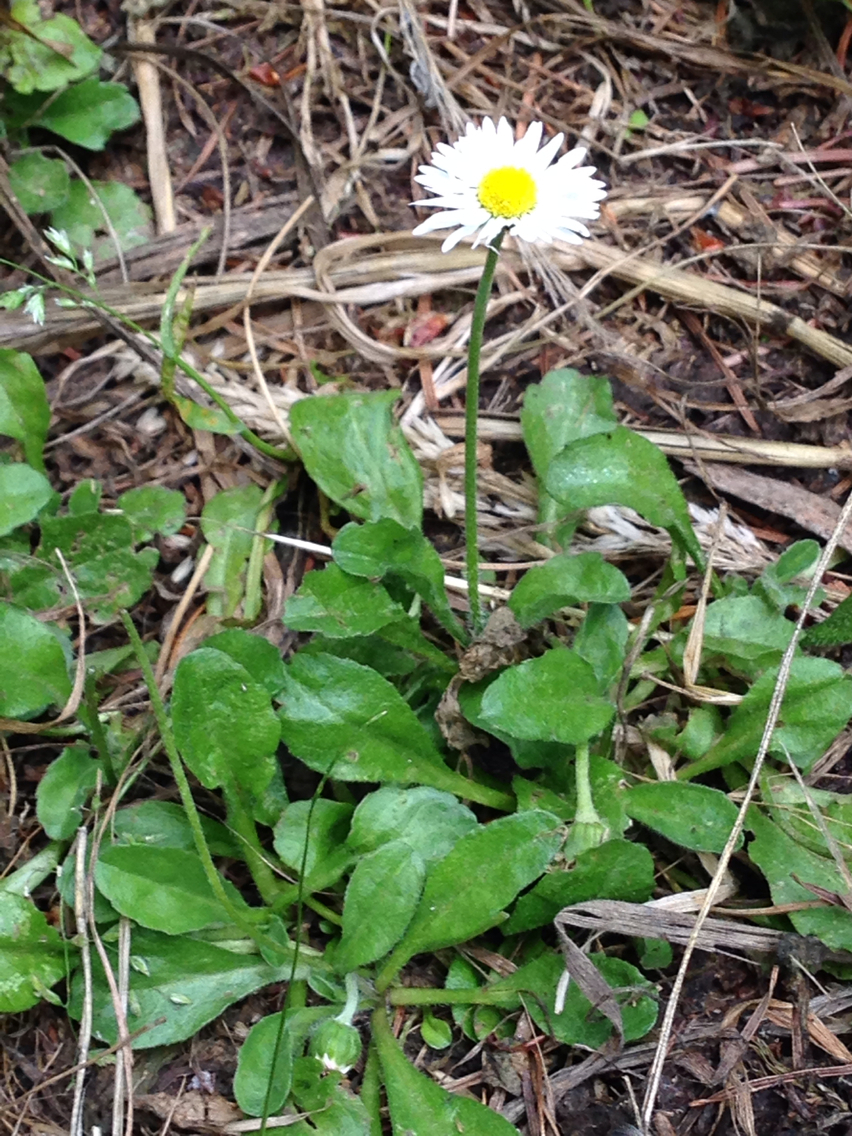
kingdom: Plantae
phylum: Tracheophyta
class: Magnoliopsida
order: Asterales
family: Asteraceae
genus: Bellis
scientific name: Bellis perennis
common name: Lawndaisy
